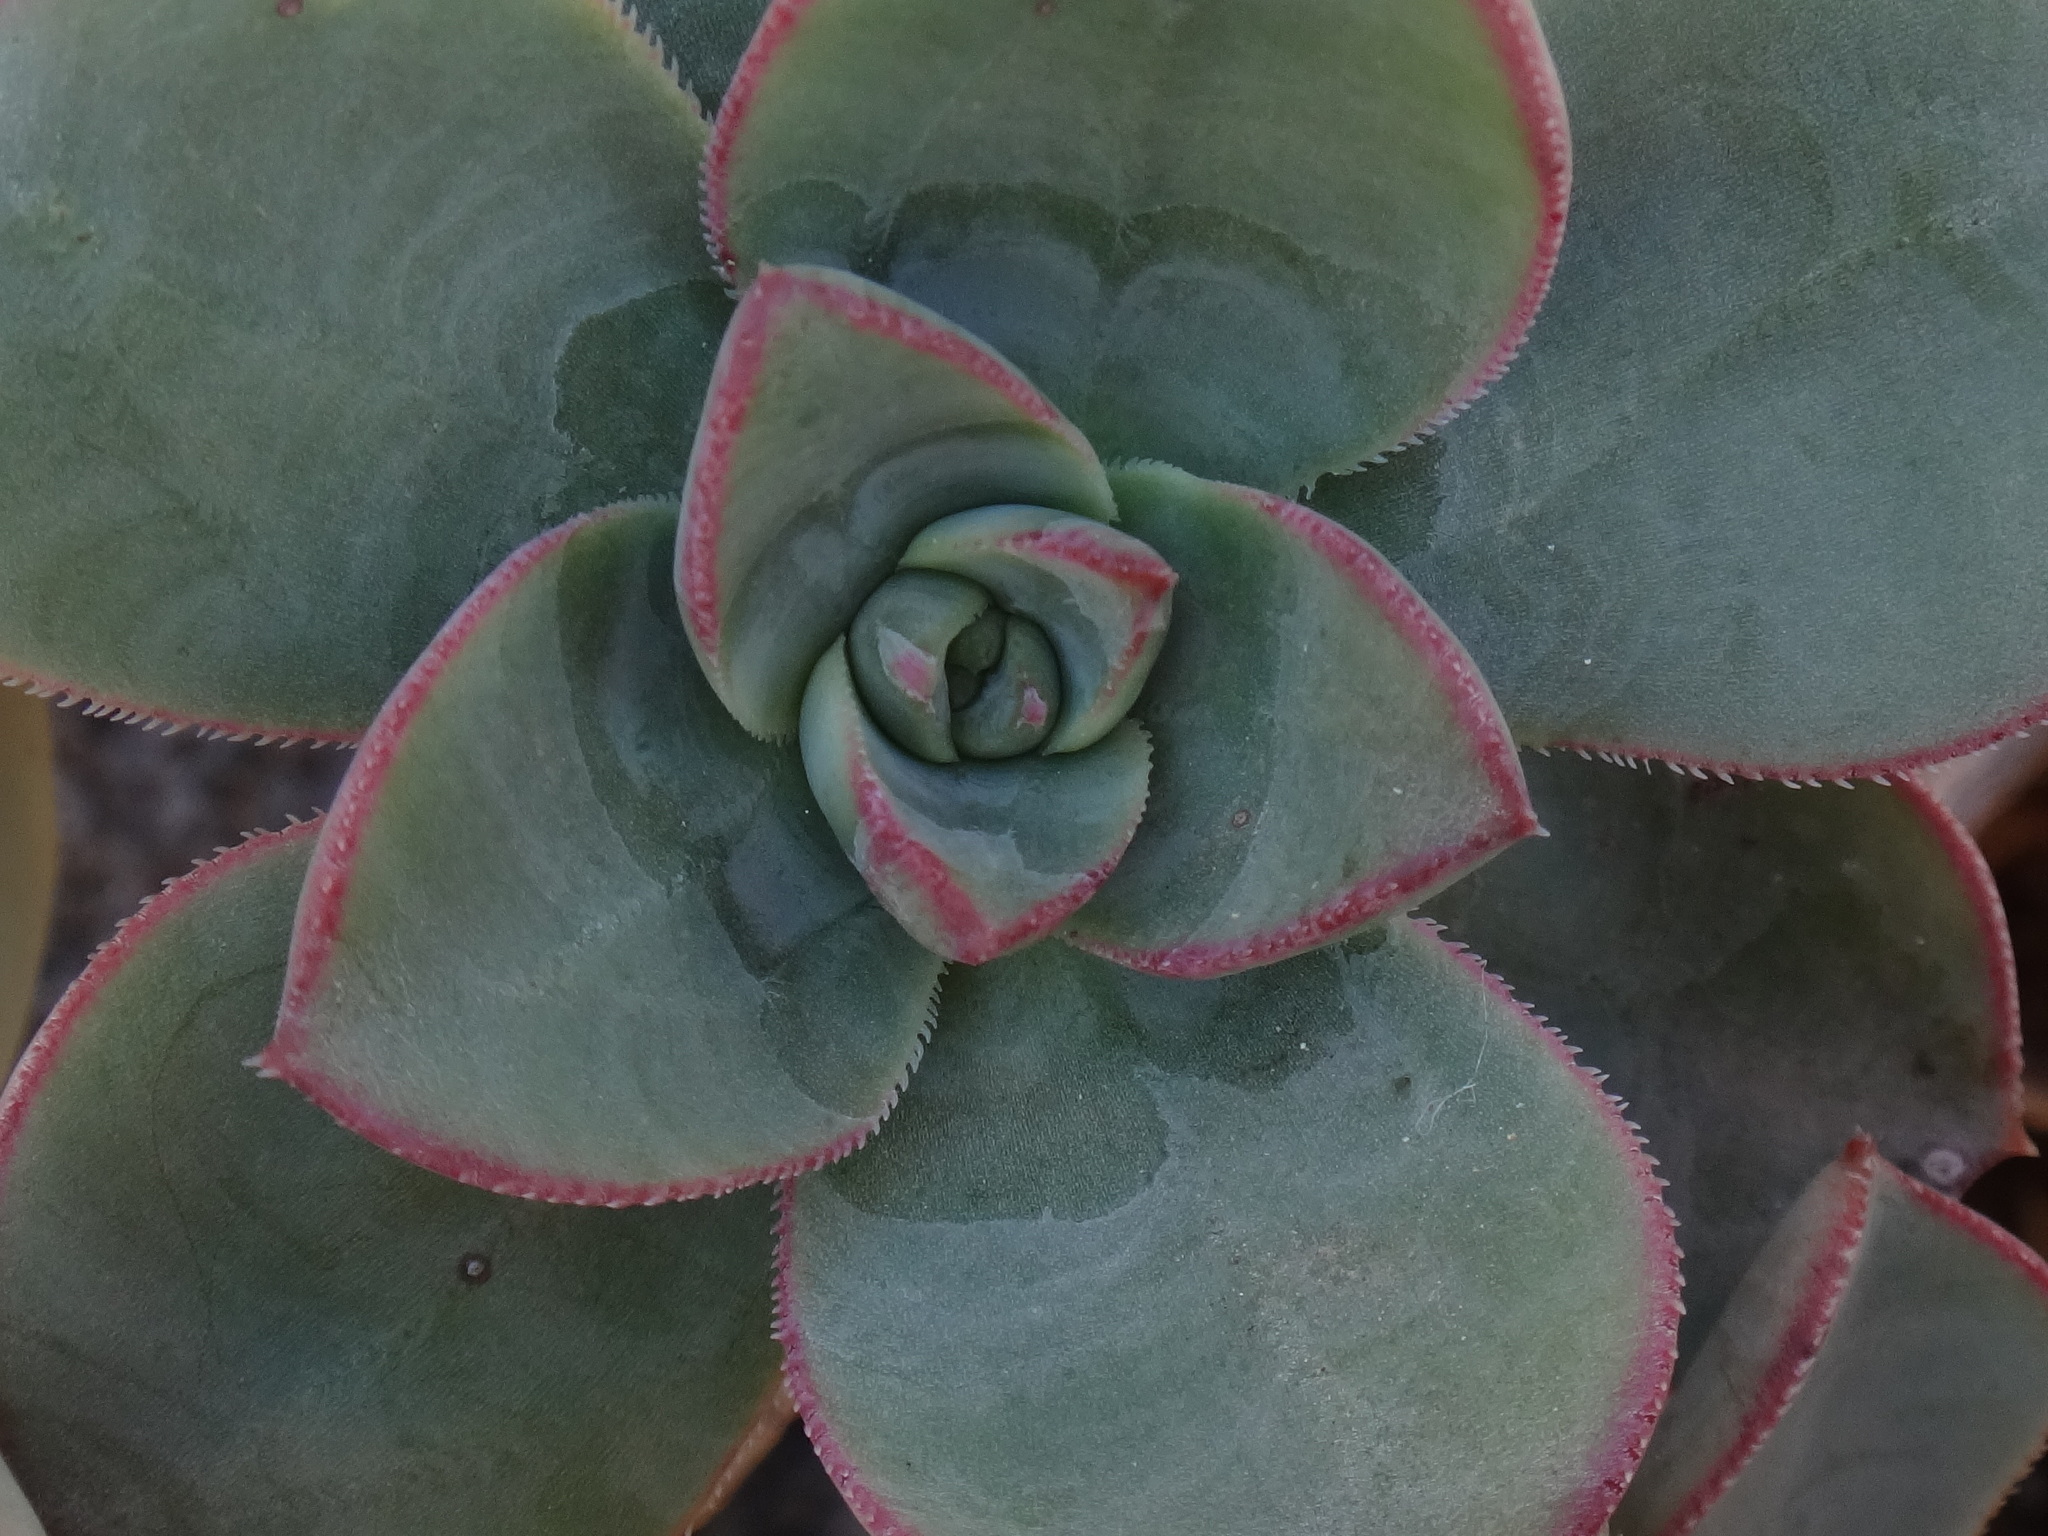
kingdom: Plantae
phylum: Tracheophyta
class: Magnoliopsida
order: Saxifragales
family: Crassulaceae
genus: Aeonium
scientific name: Aeonium haworthii
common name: Haworth's aeonium
